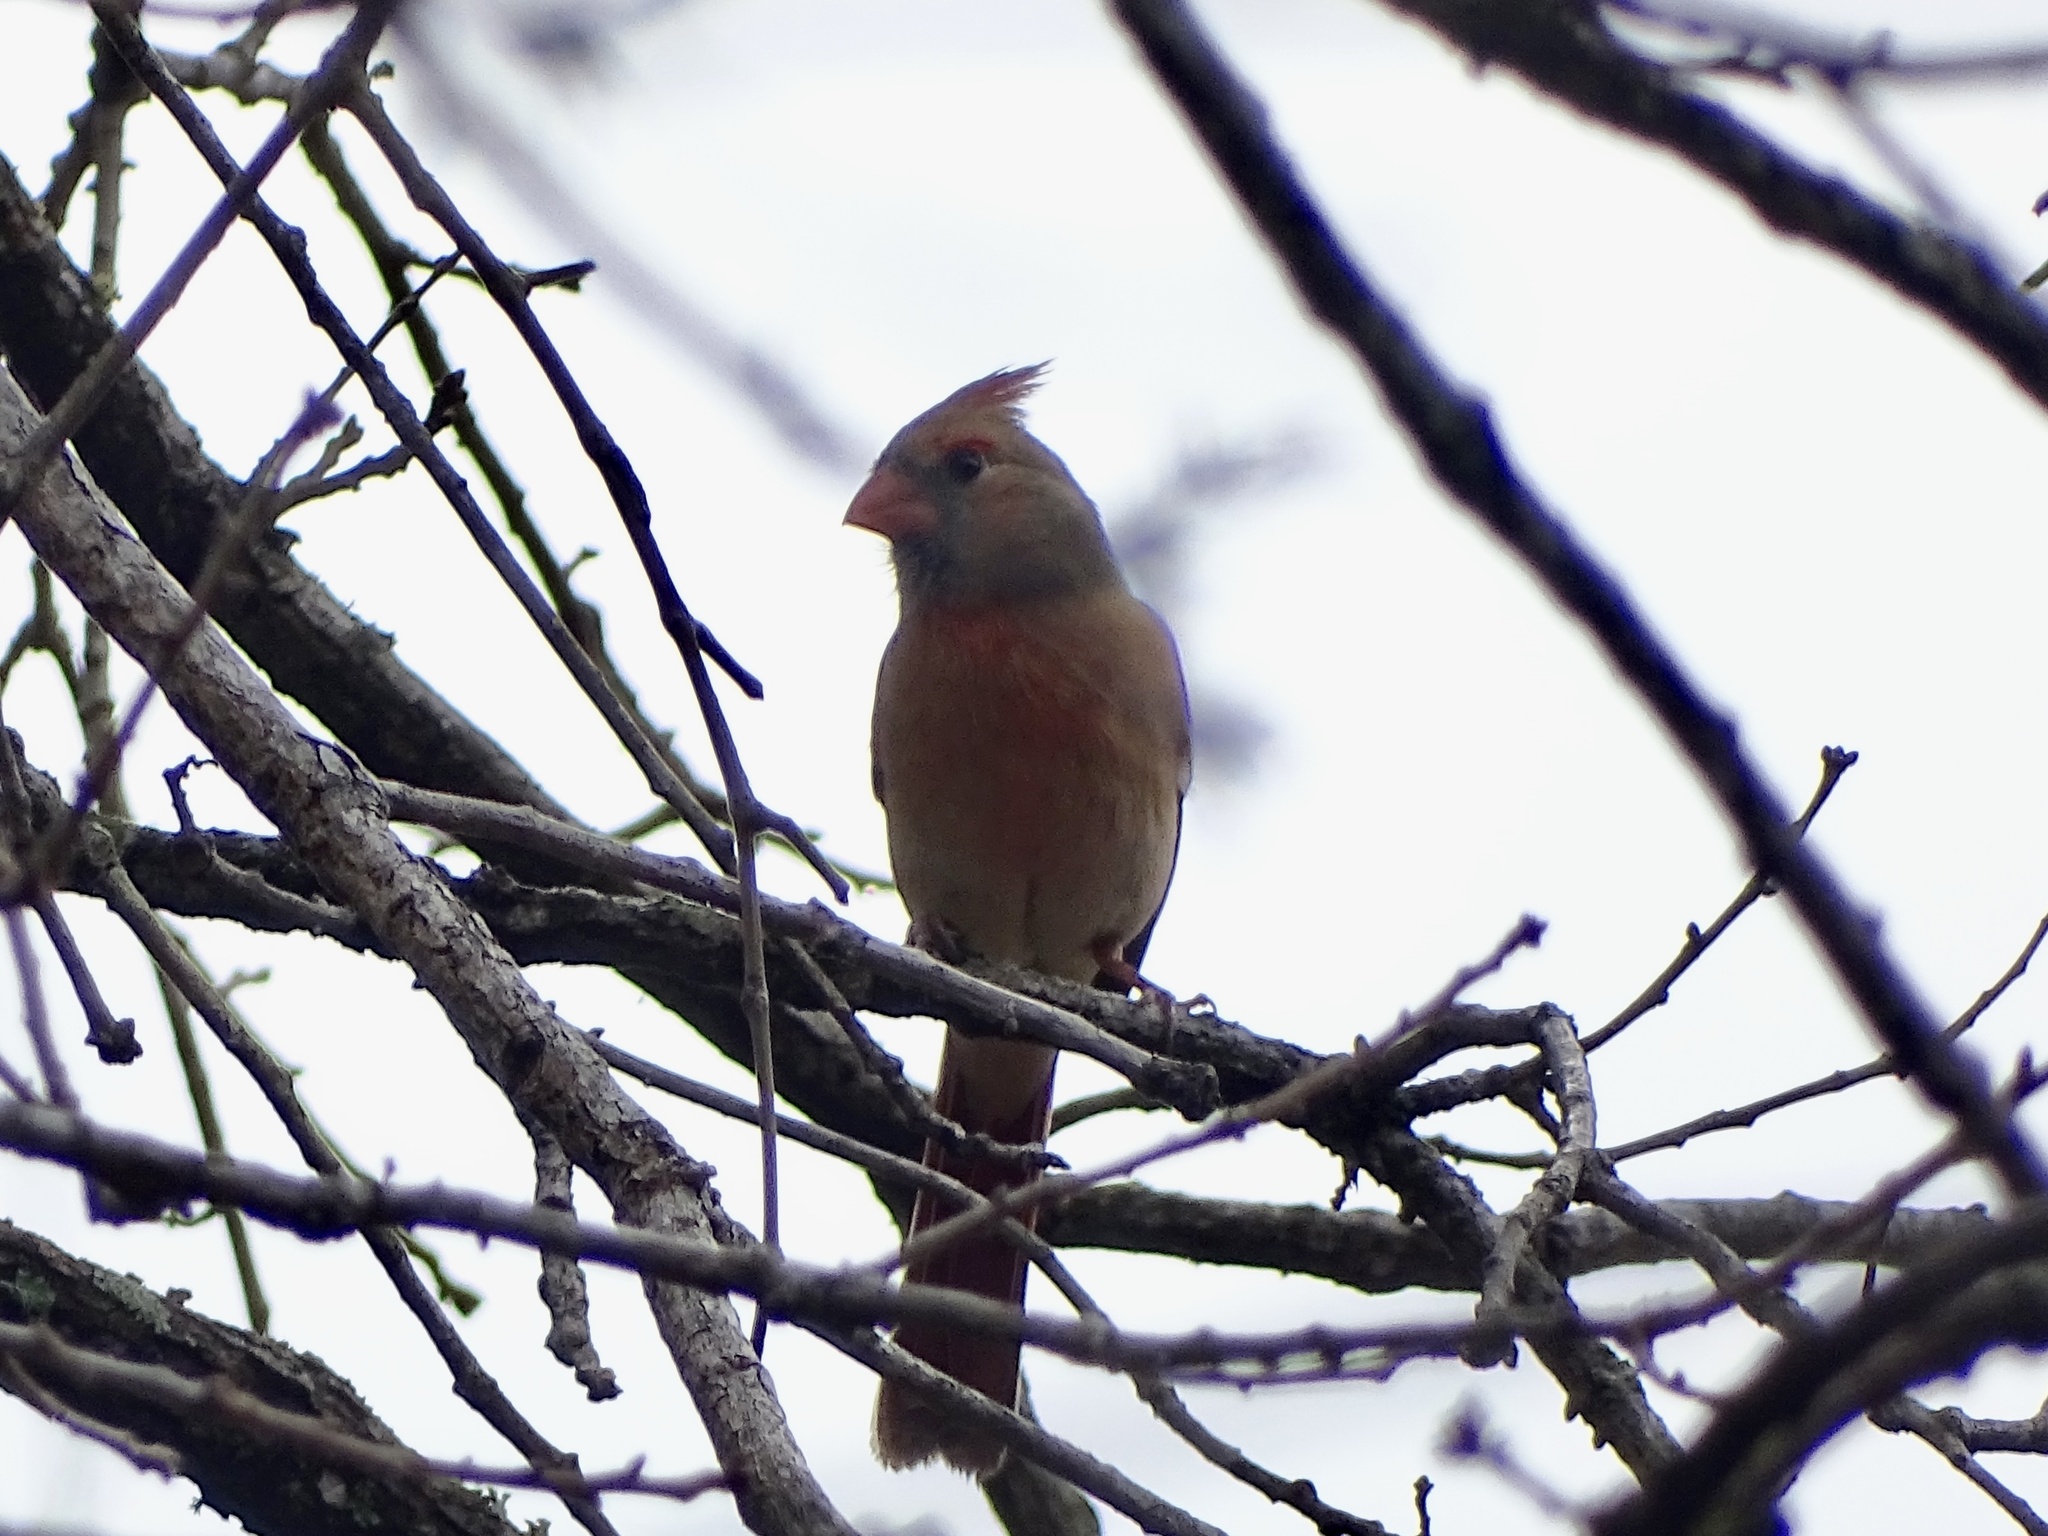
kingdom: Animalia
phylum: Chordata
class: Aves
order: Passeriformes
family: Cardinalidae
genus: Cardinalis
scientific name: Cardinalis cardinalis
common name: Northern cardinal
